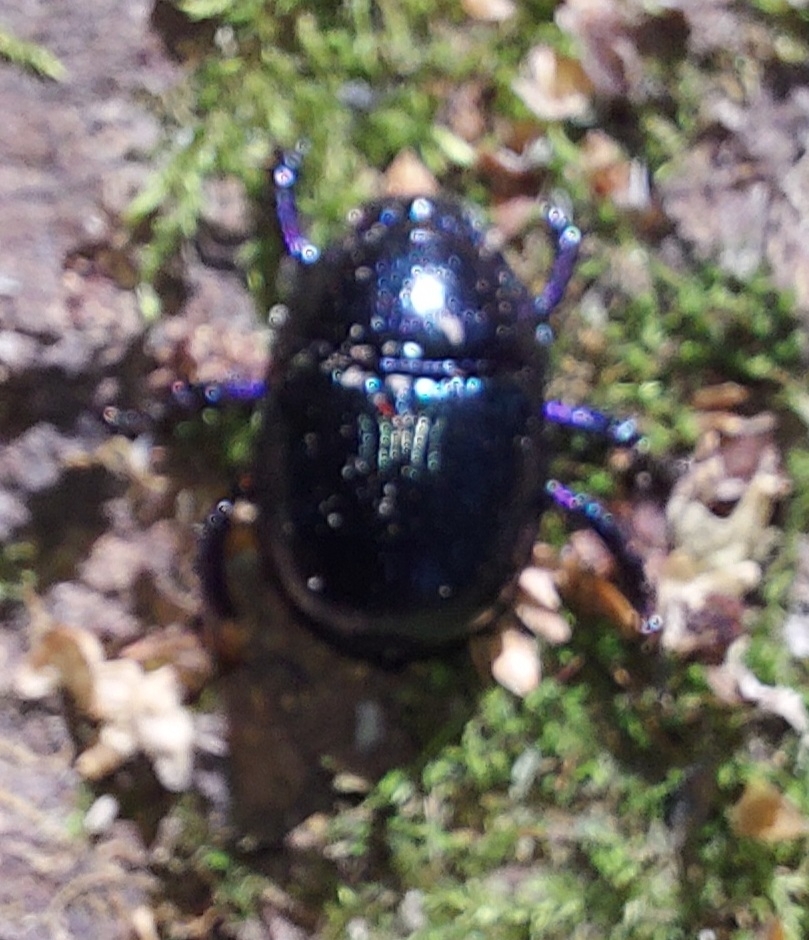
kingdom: Animalia
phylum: Arthropoda
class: Insecta
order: Coleoptera
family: Geotrupidae
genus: Anoplotrupes
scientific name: Anoplotrupes stercorosus
